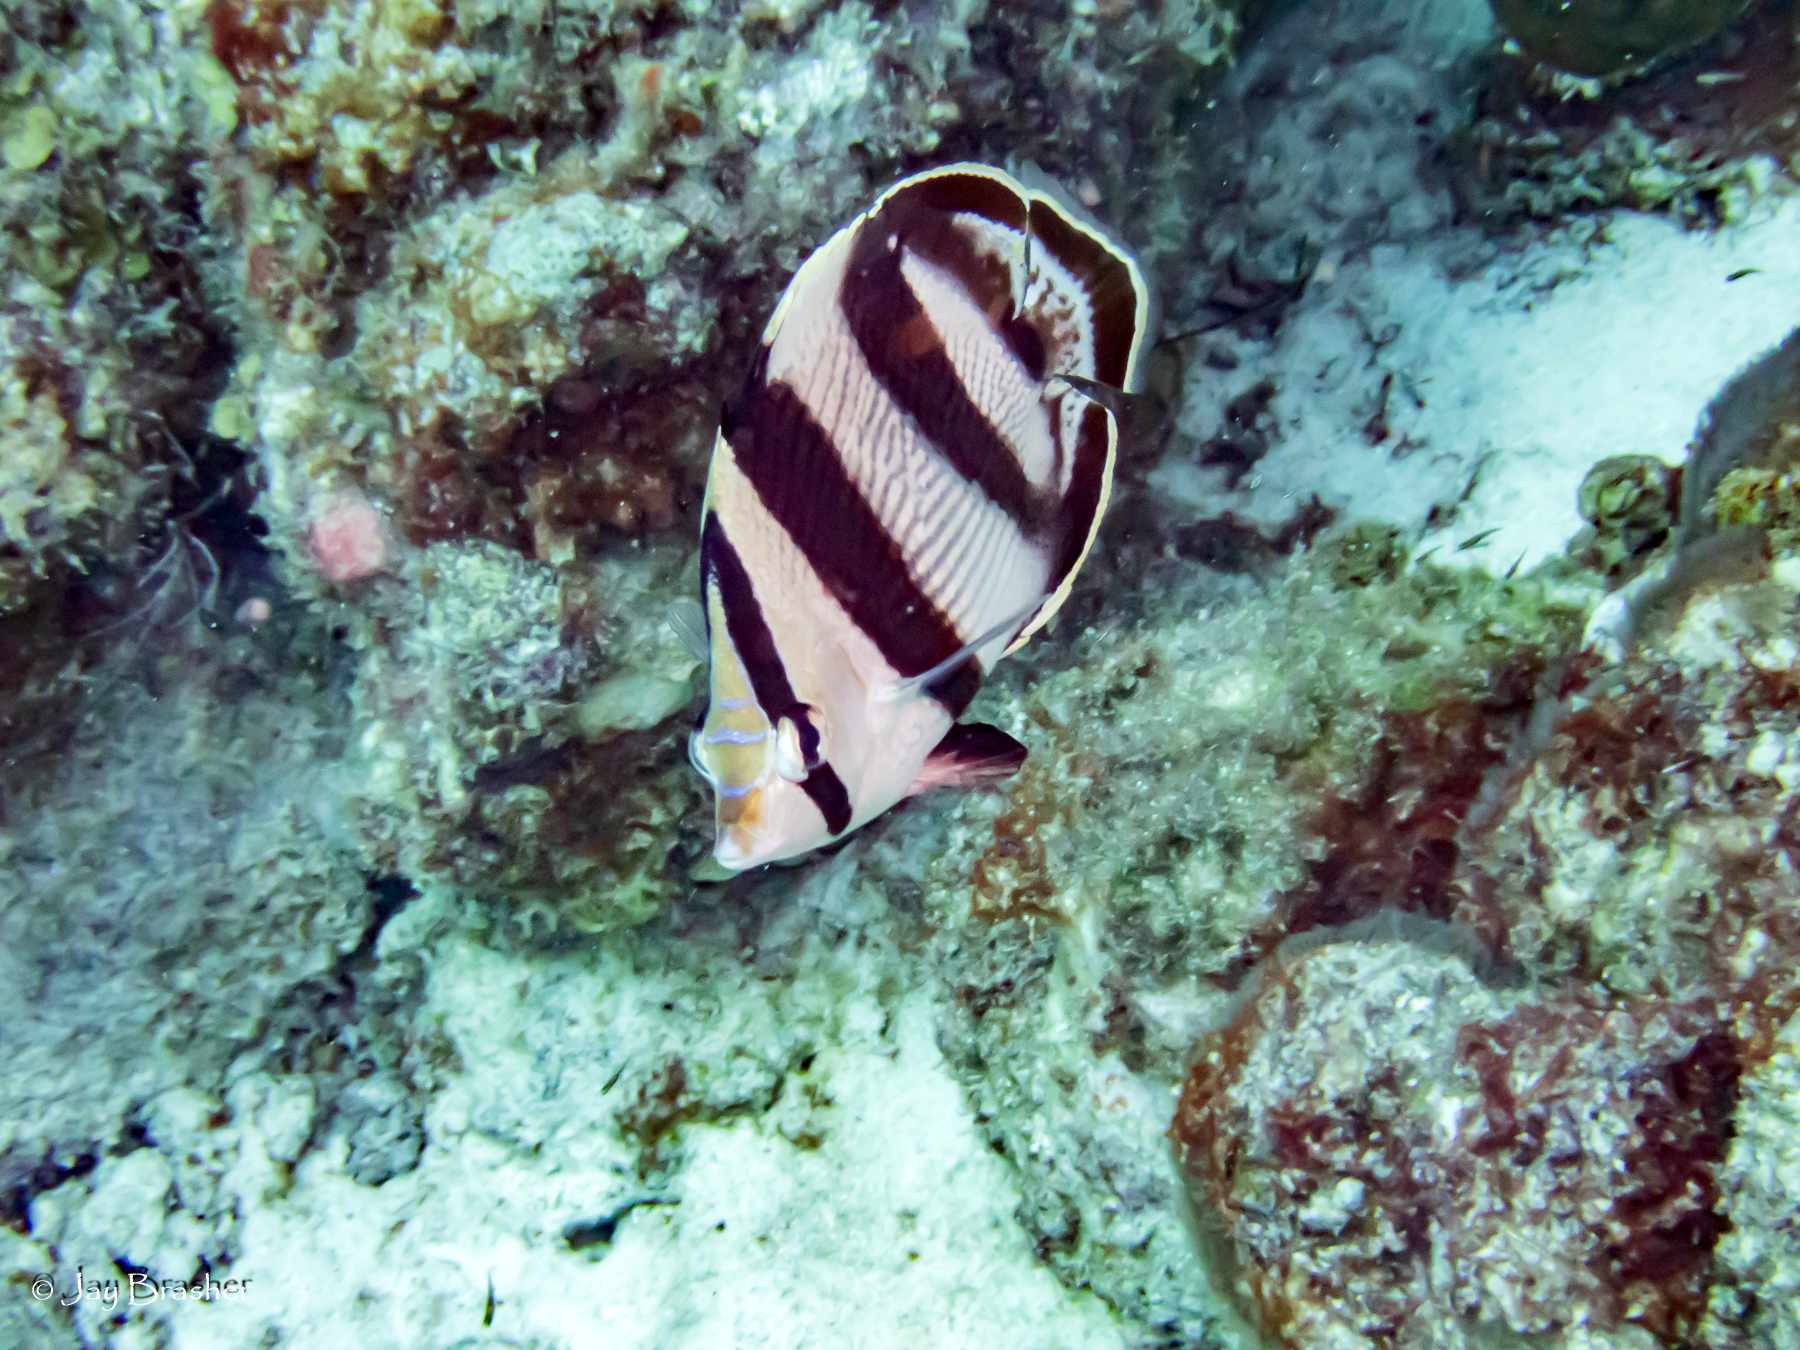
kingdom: Animalia
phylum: Chordata
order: Perciformes
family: Chaetodontidae
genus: Chaetodon
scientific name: Chaetodon striatus
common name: Banded butterflyfish
